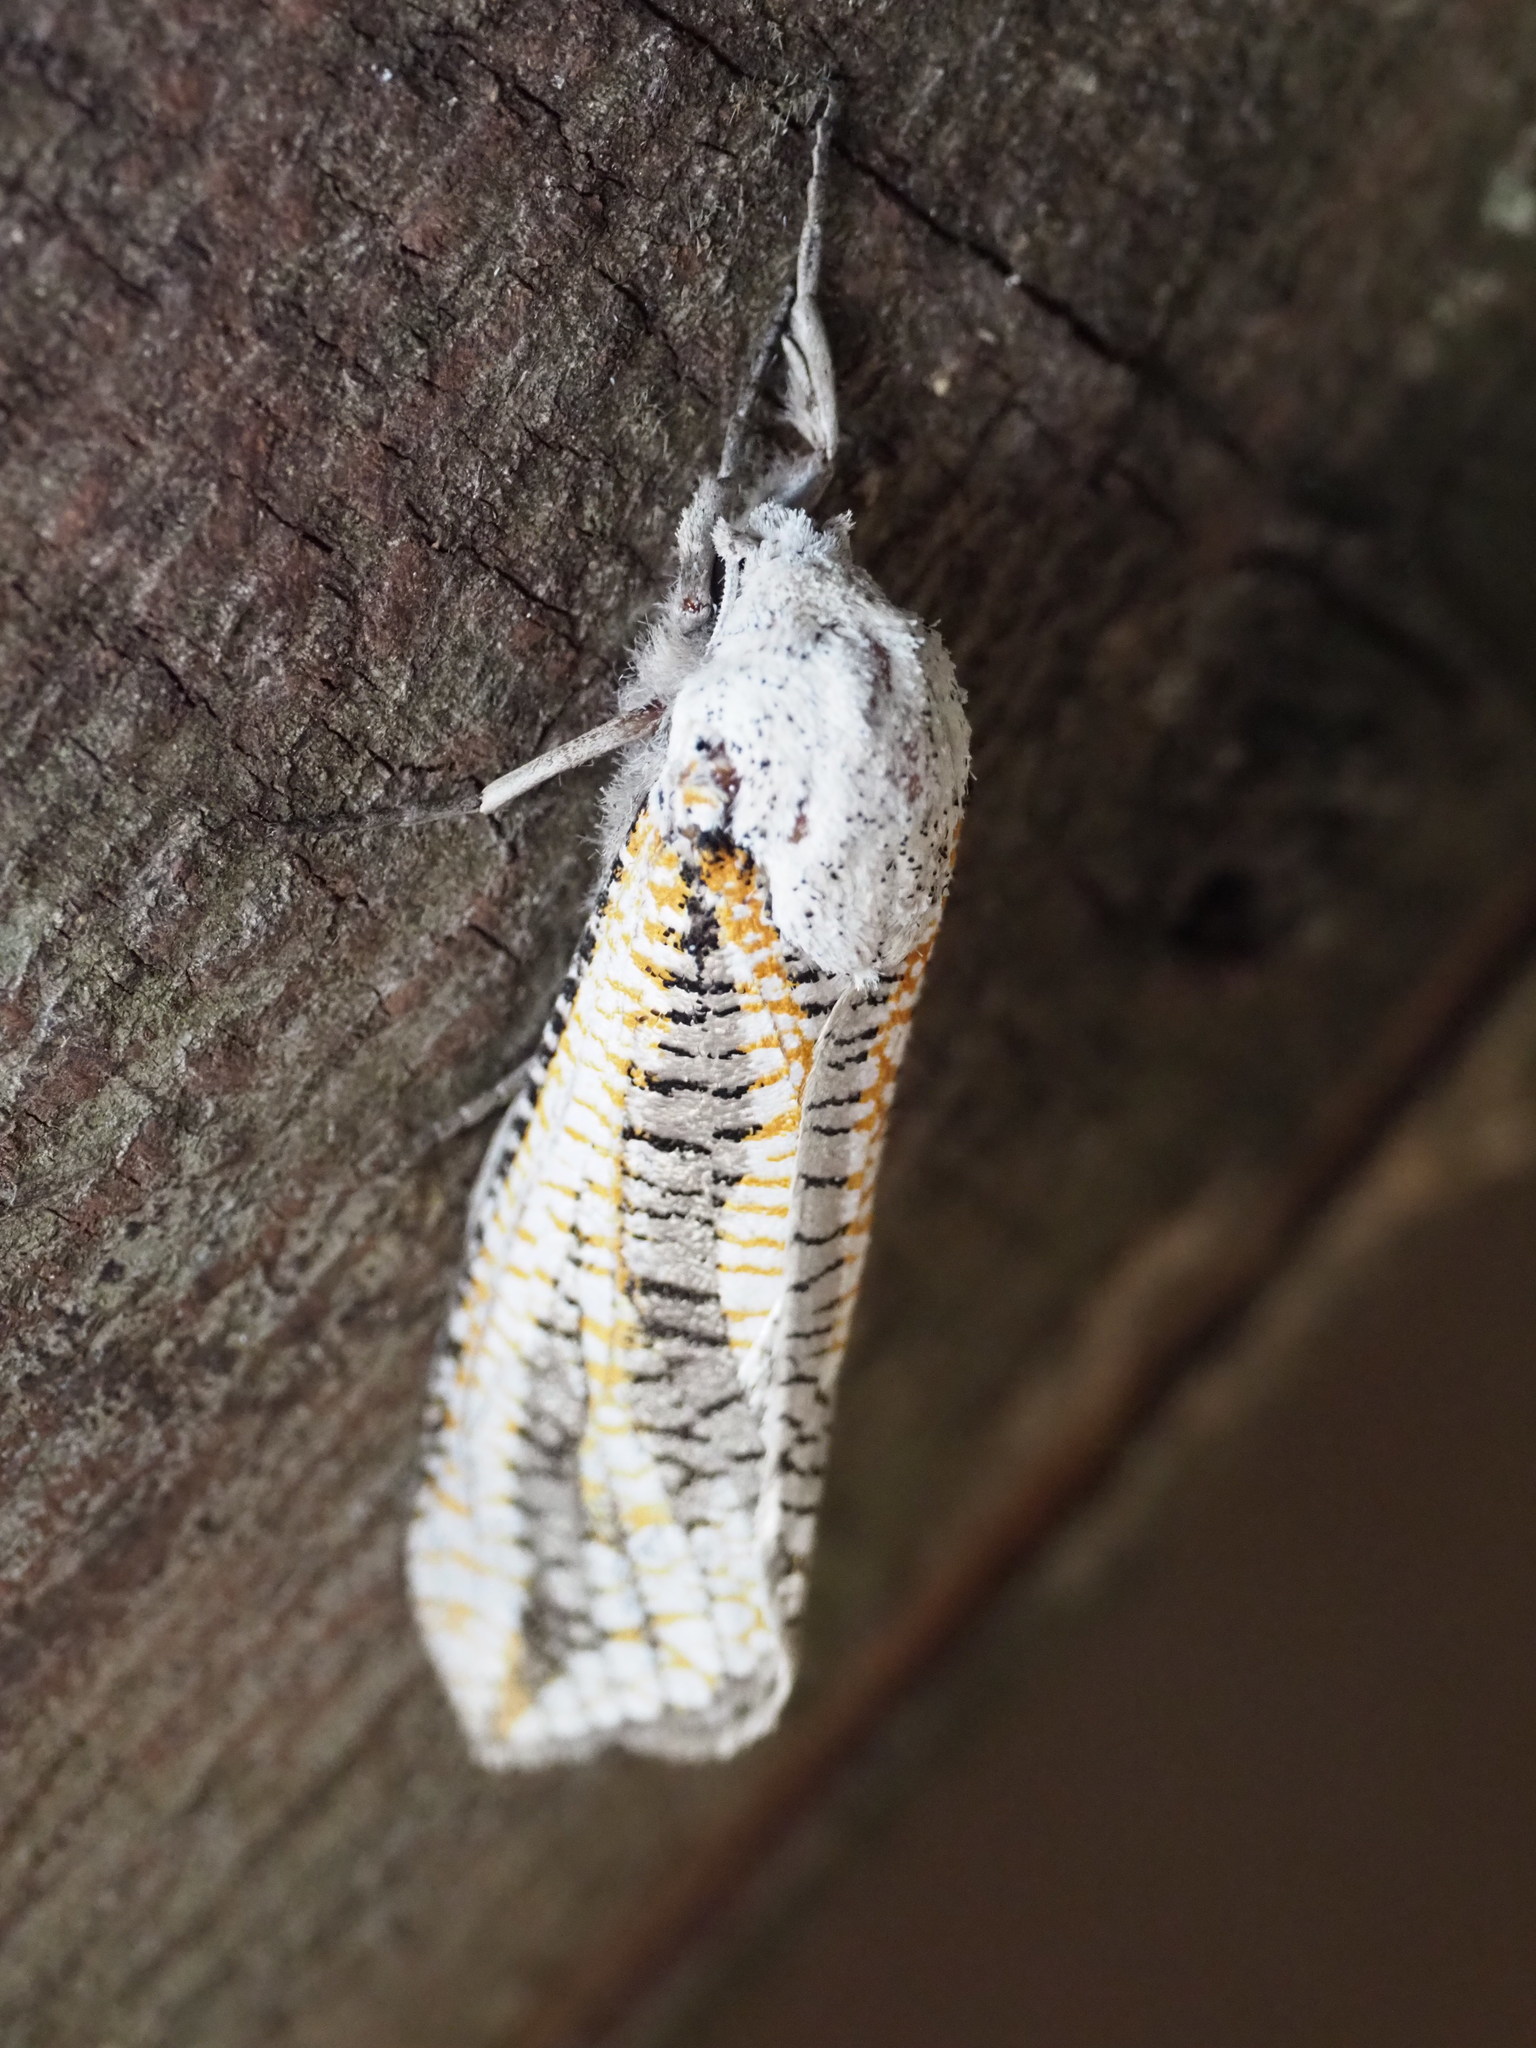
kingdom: Animalia
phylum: Arthropoda
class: Insecta
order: Lepidoptera
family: Cossidae
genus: Azygophleps
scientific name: Azygophleps inclusa
